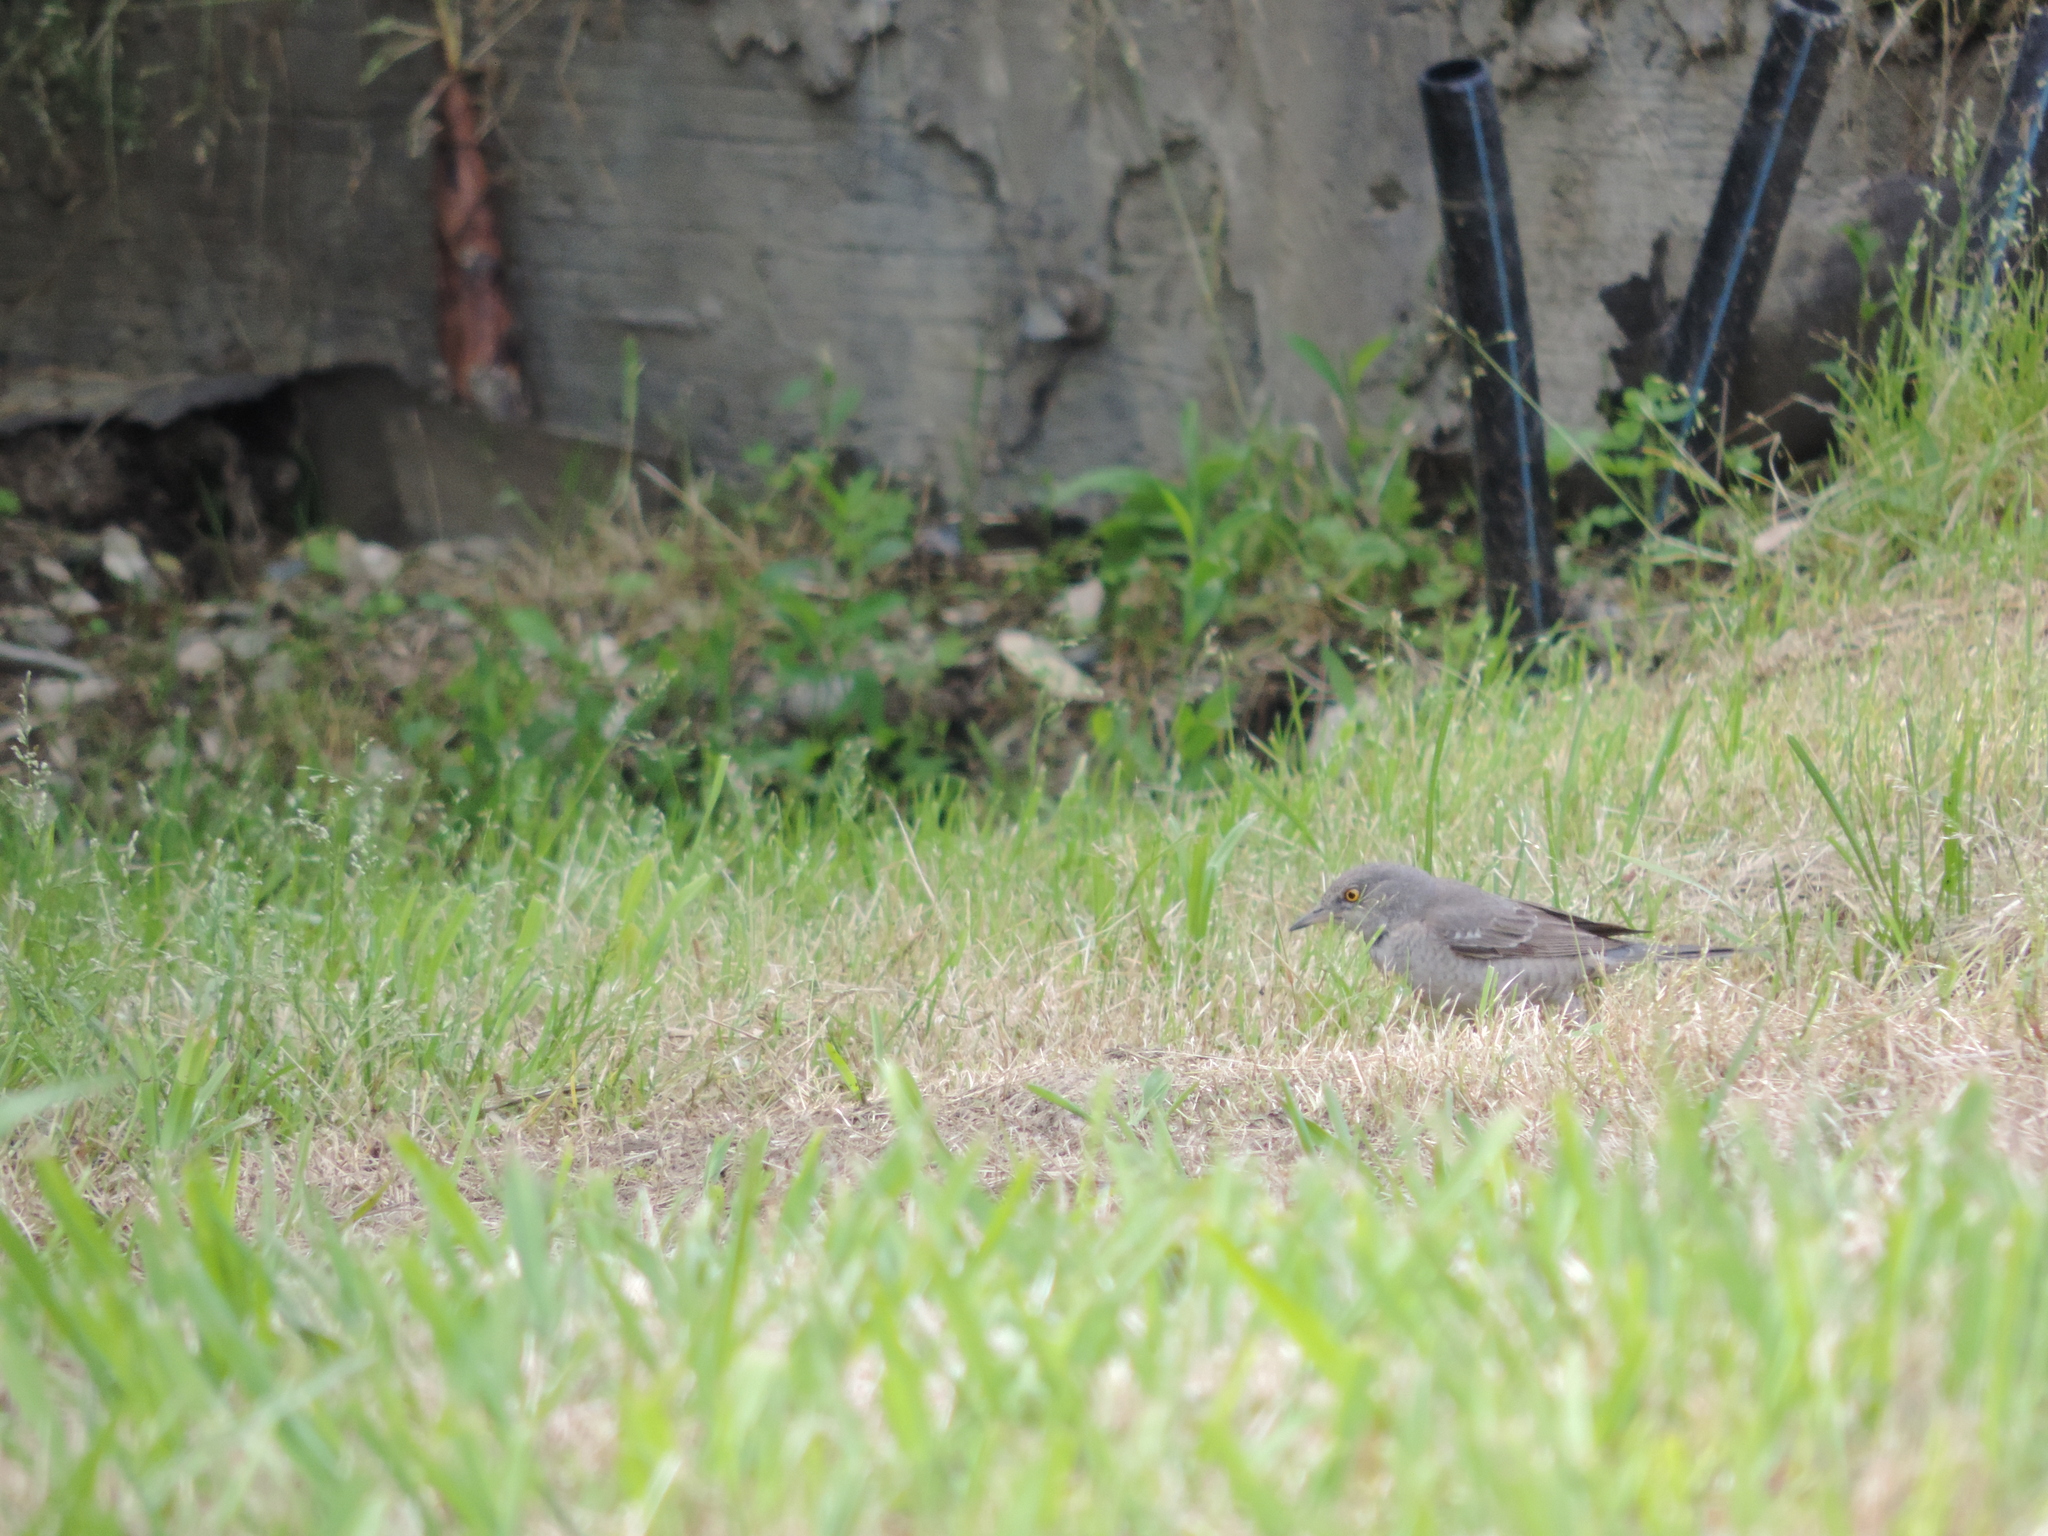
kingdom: Animalia
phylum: Chordata
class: Aves
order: Passeriformes
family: Sylviidae
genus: Sylvia
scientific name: Sylvia nisoria
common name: Barred warbler
